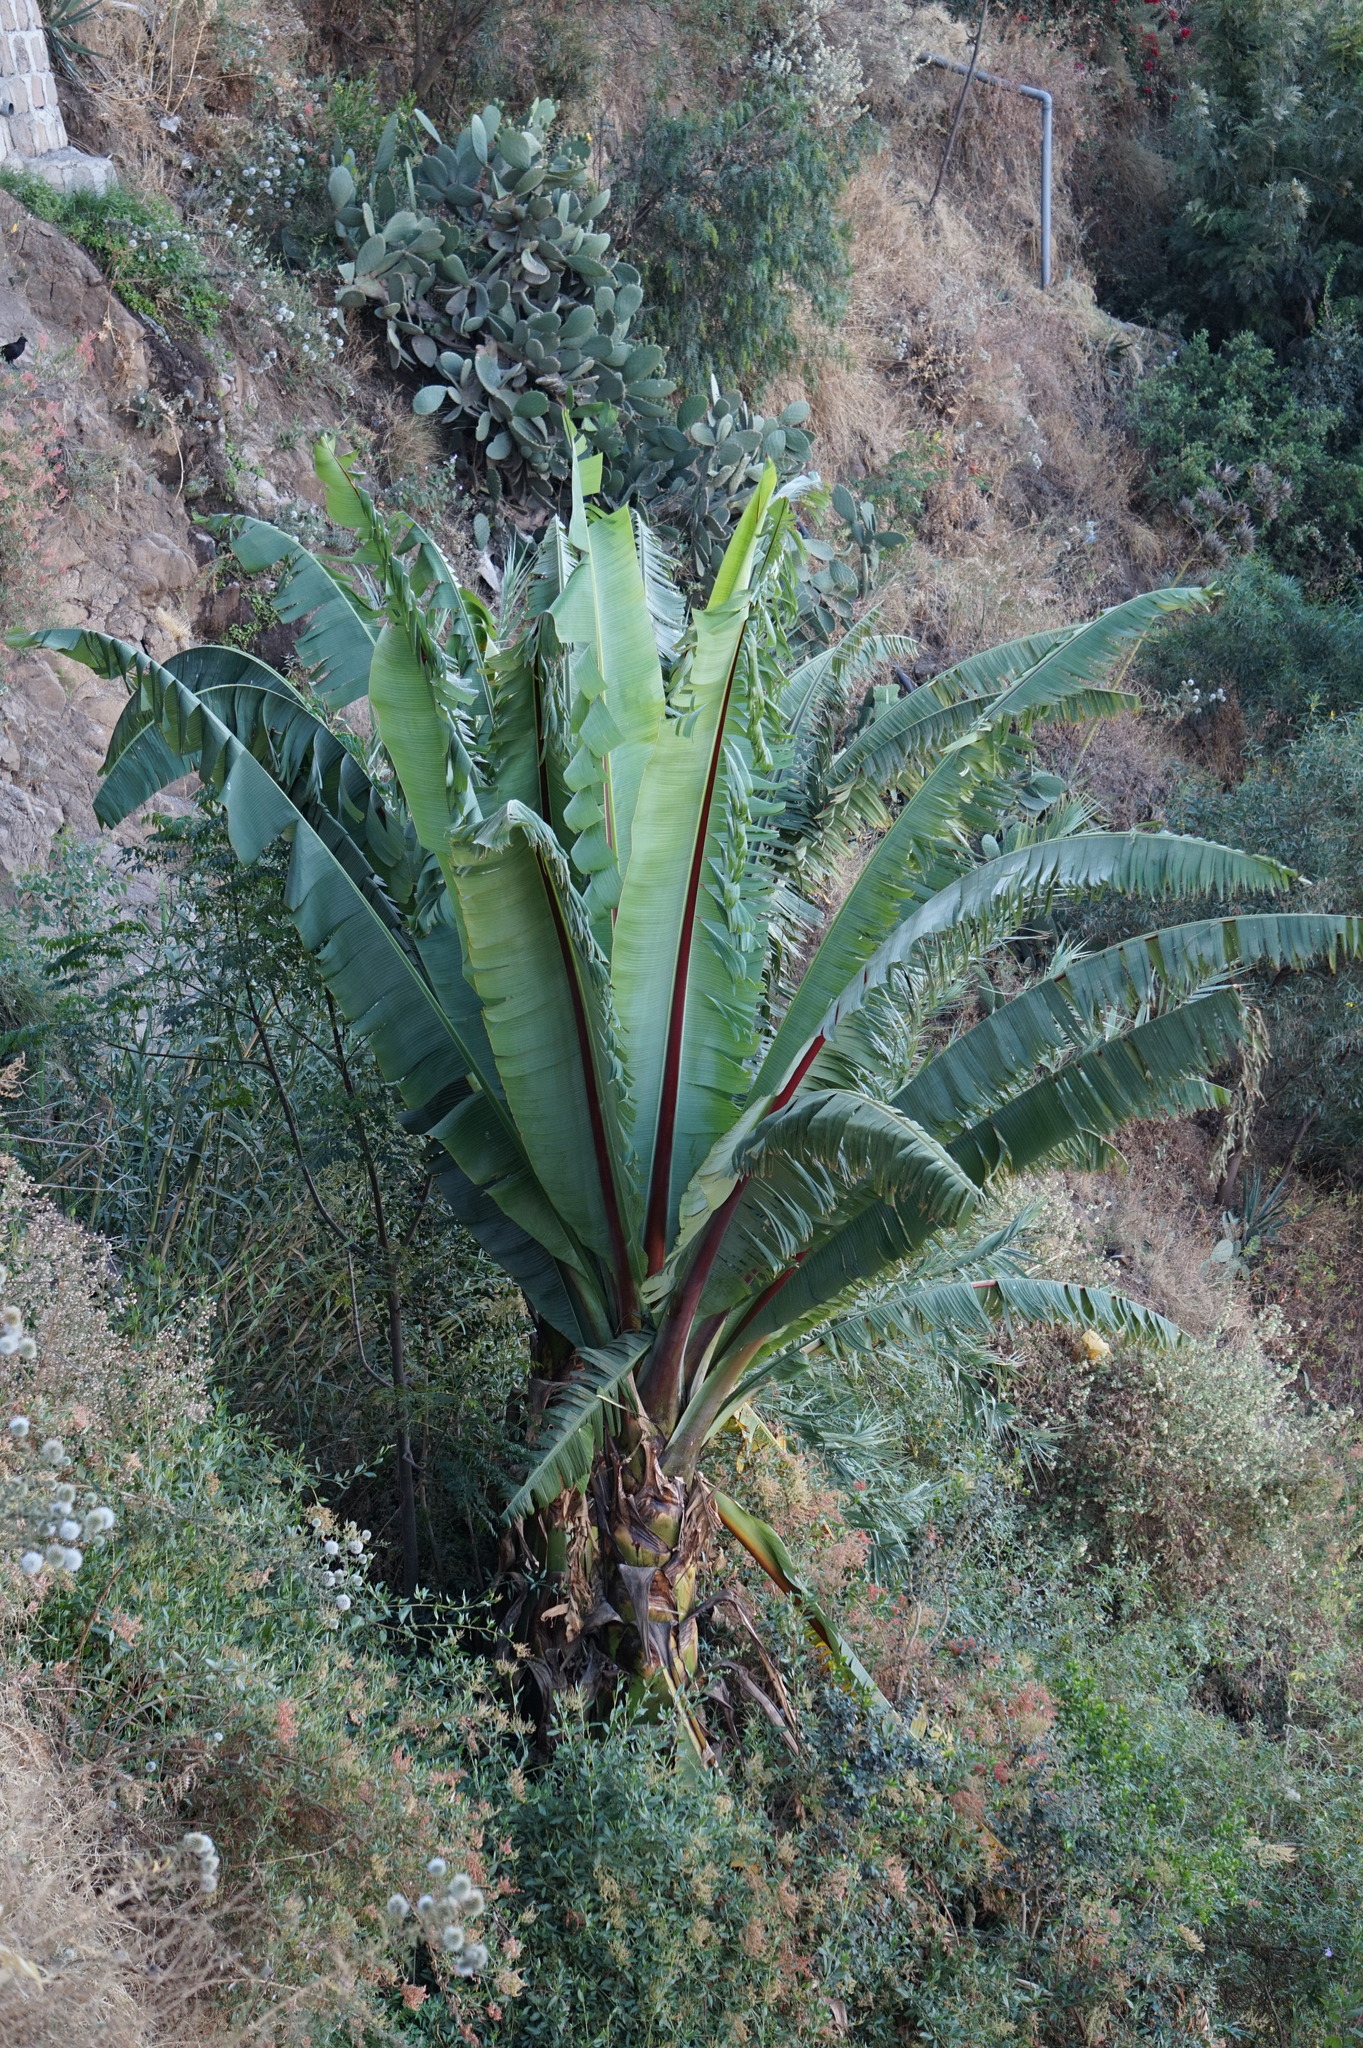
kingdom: Plantae
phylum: Tracheophyta
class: Liliopsida
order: Zingiberales
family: Musaceae
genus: Ensete
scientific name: Ensete ventricosum
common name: Abyssinian banana
